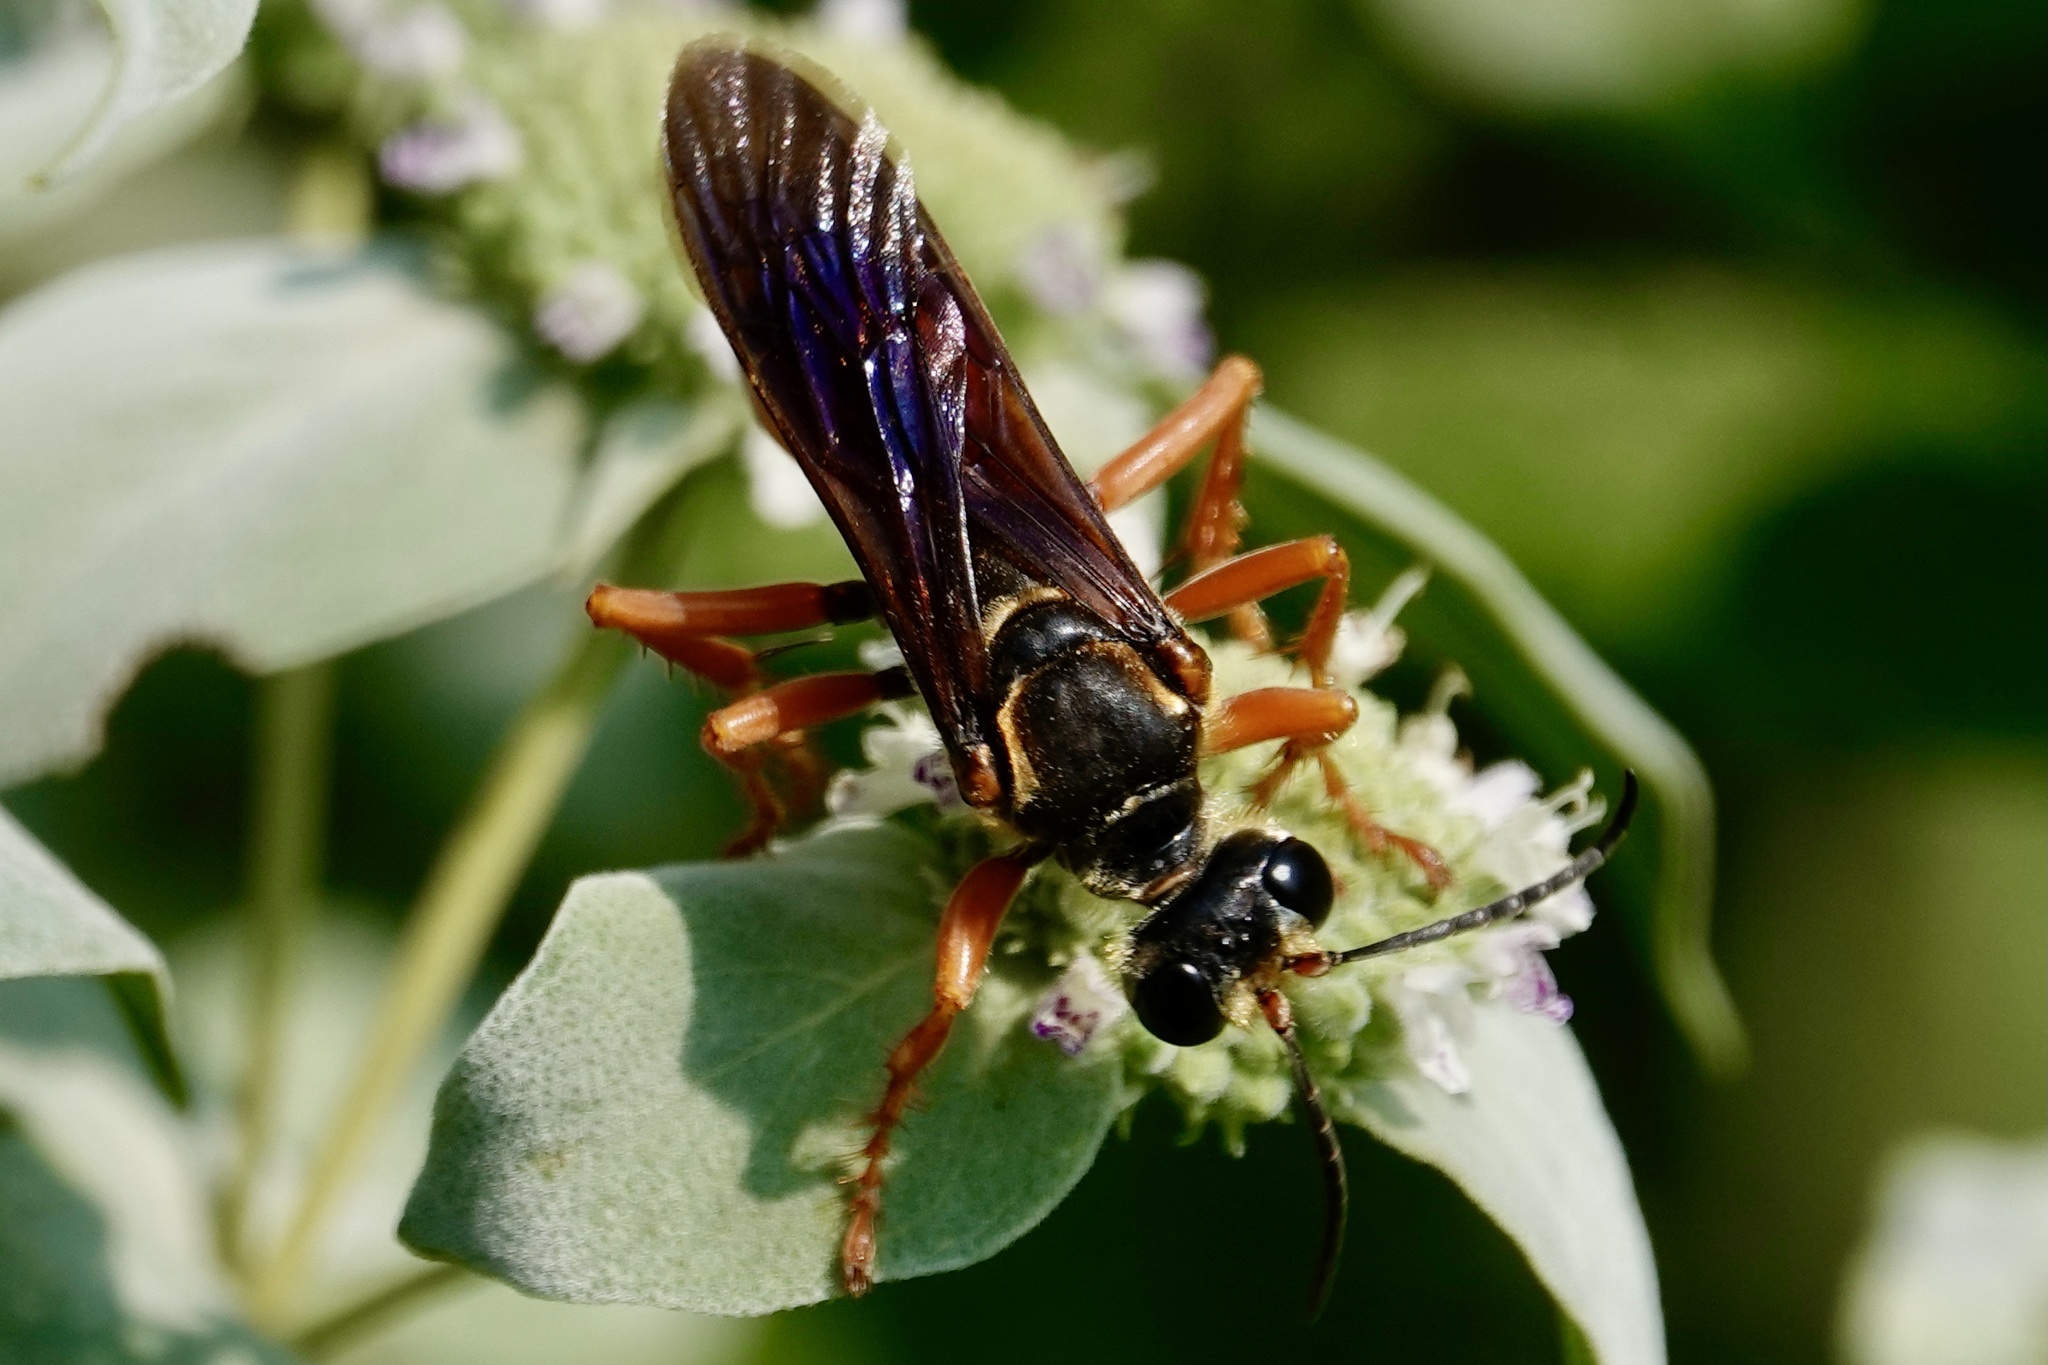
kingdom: Animalia
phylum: Arthropoda
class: Insecta
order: Hymenoptera
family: Sphecidae
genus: Sphex
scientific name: Sphex ichneumoneus
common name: Great golden digger wasp
